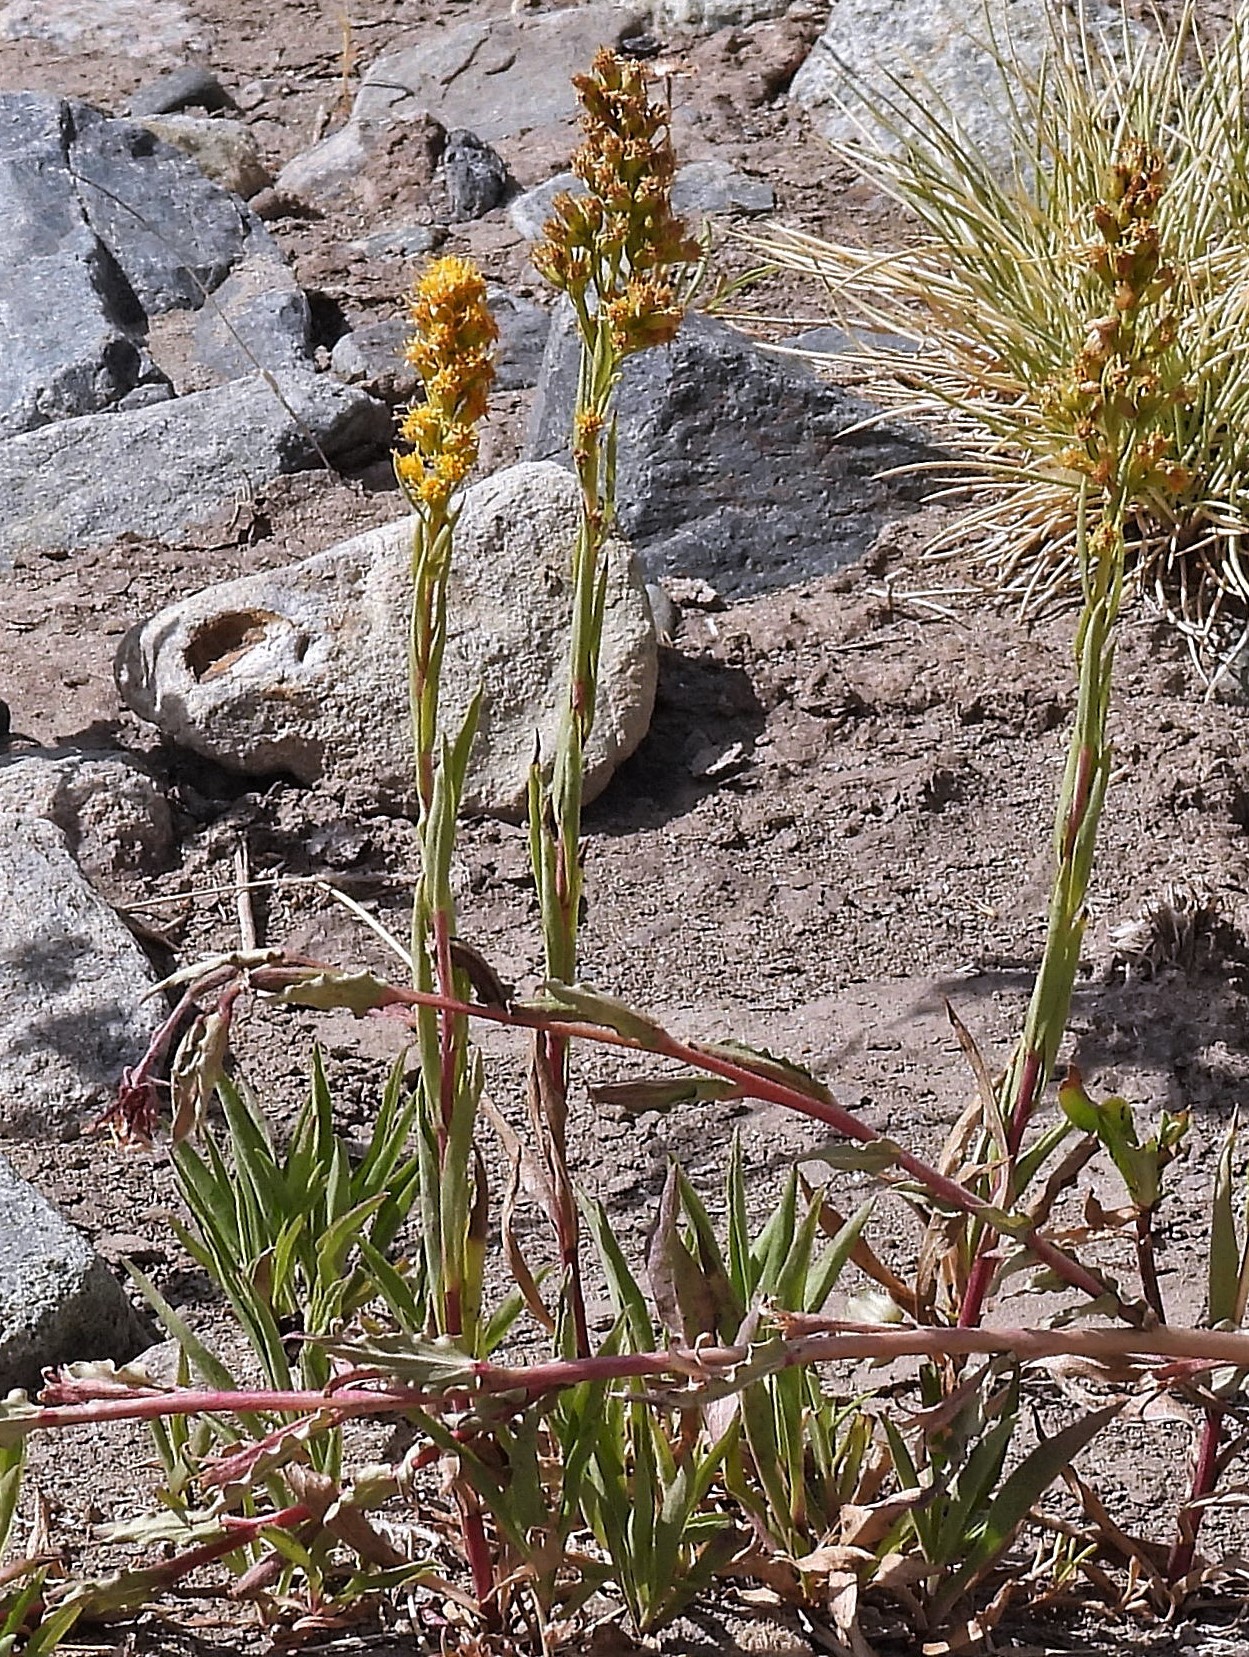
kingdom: Plantae
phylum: Tracheophyta
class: Magnoliopsida
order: Asterales
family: Asteraceae
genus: Solidago
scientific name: Solidago argentinensis
